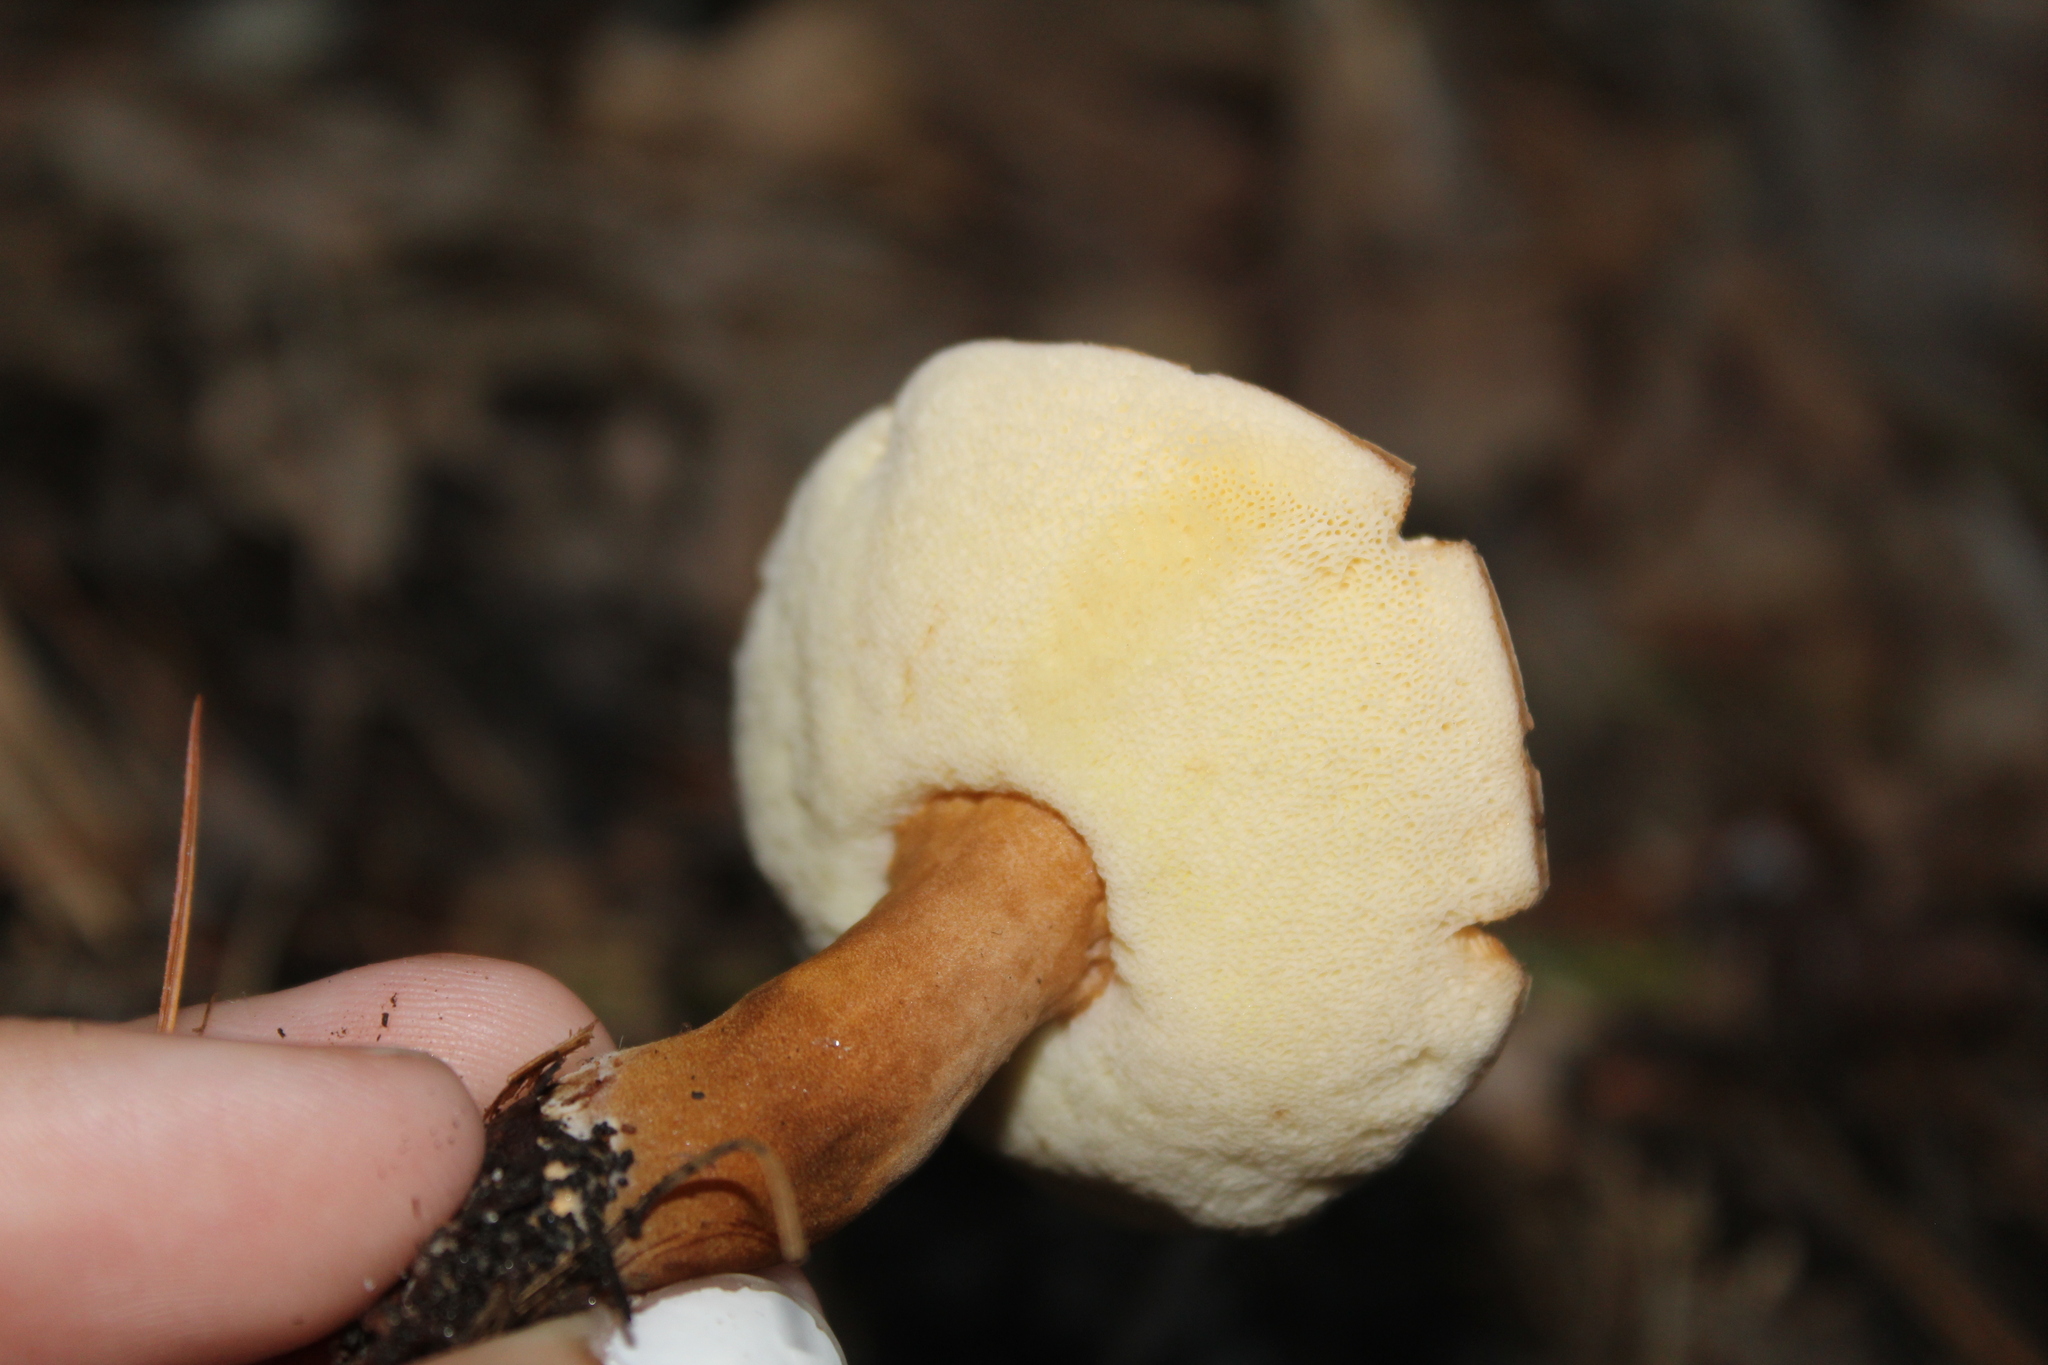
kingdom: Fungi
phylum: Basidiomycota
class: Agaricomycetes
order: Boletales
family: Gyroporaceae
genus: Gyroporus
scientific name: Gyroporus borealis
